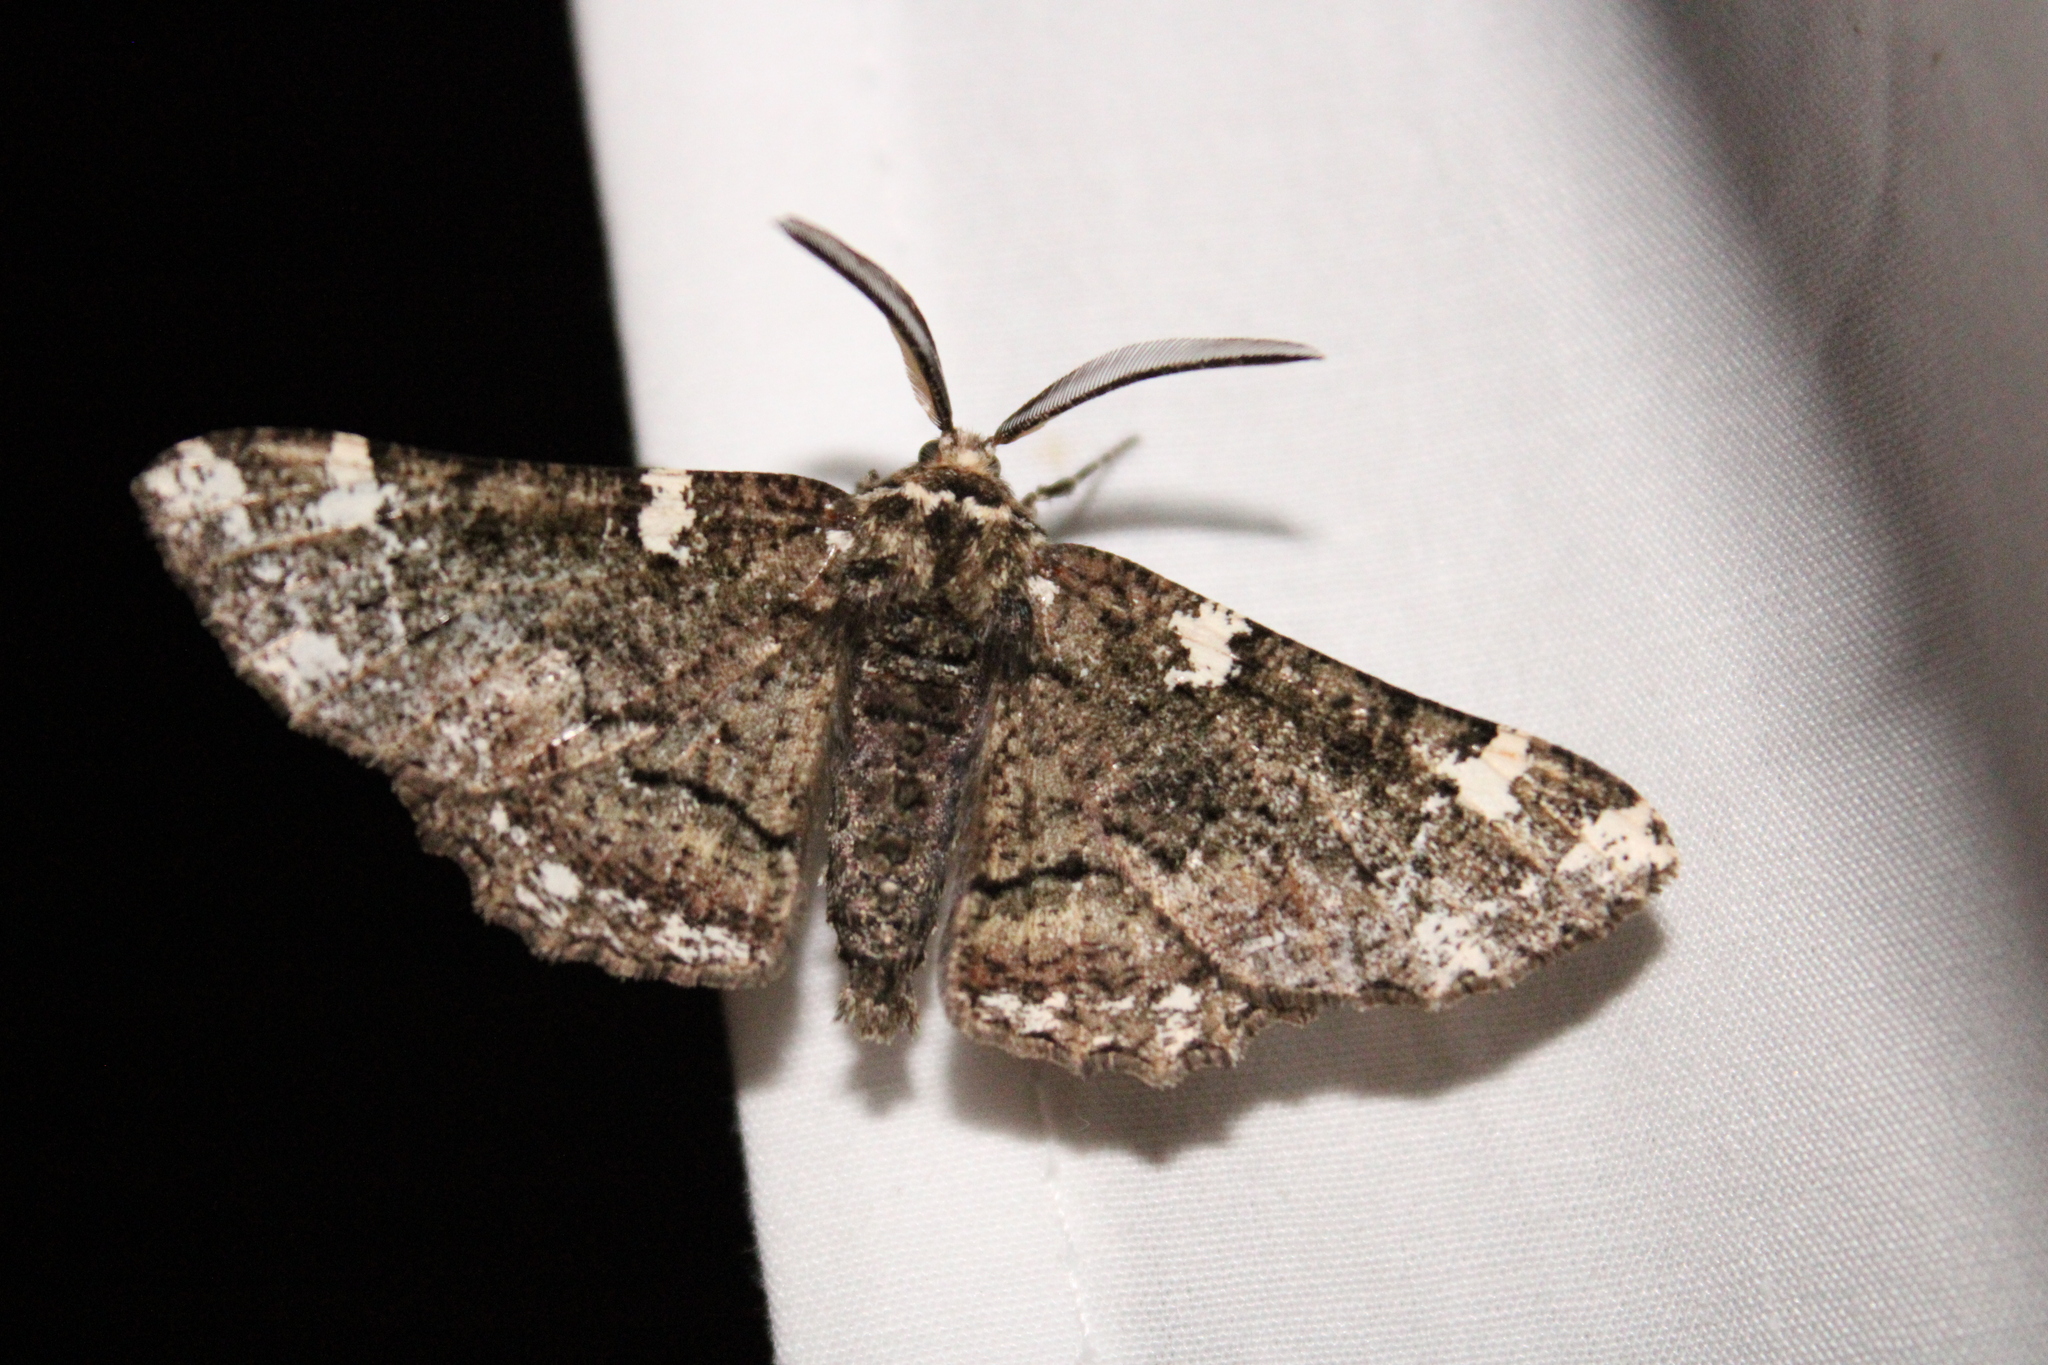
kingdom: Animalia
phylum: Arthropoda
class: Insecta
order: Lepidoptera
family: Geometridae
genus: Phaeoura
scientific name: Phaeoura quernaria
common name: Oak beauty
